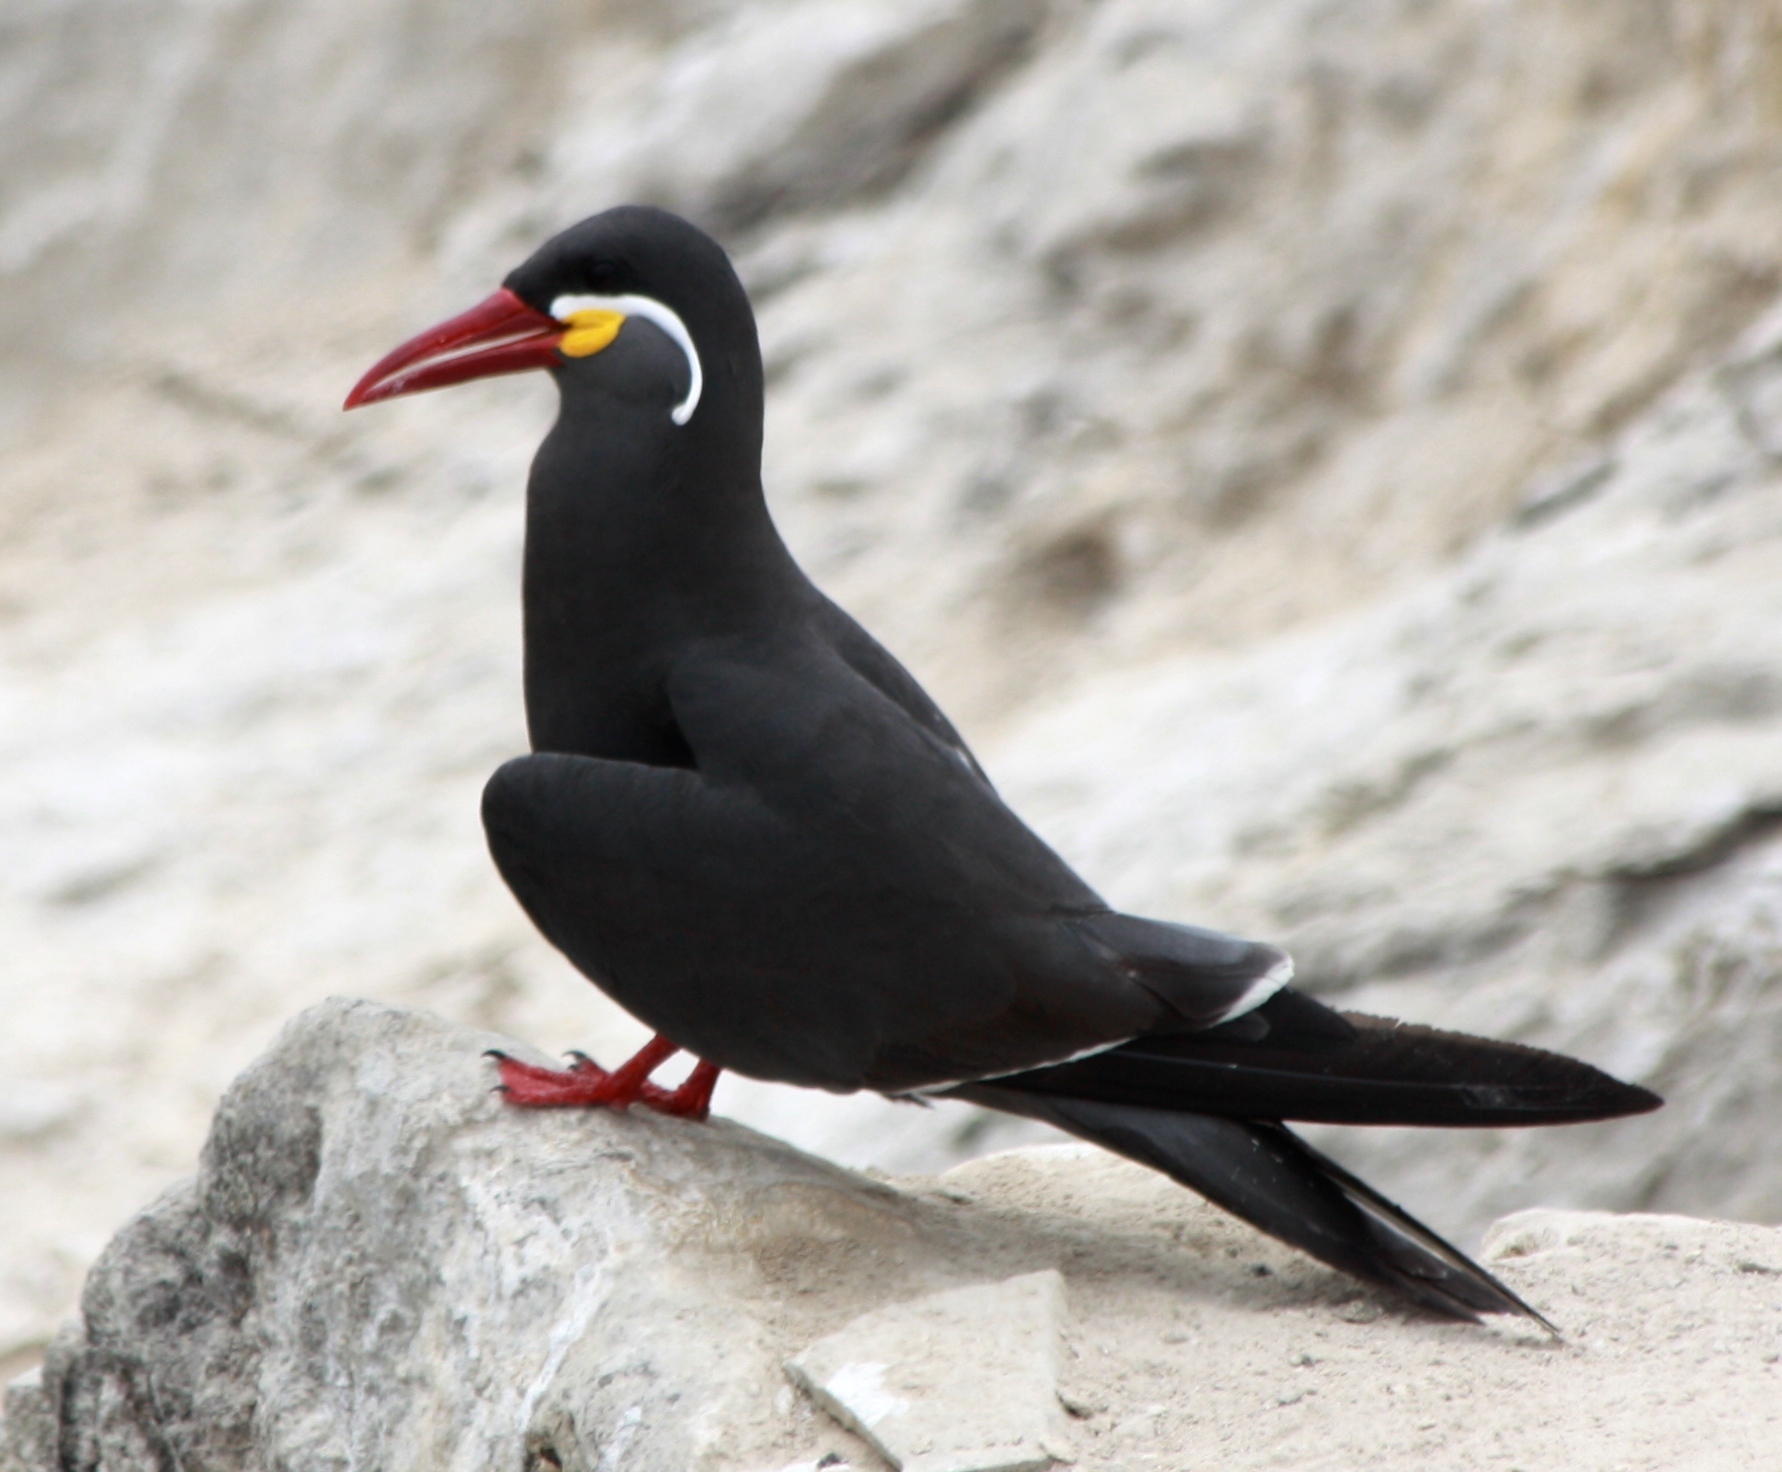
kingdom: Animalia
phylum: Chordata
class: Aves
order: Charadriiformes
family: Laridae
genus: Larosterna
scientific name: Larosterna inca
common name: Inca tern
